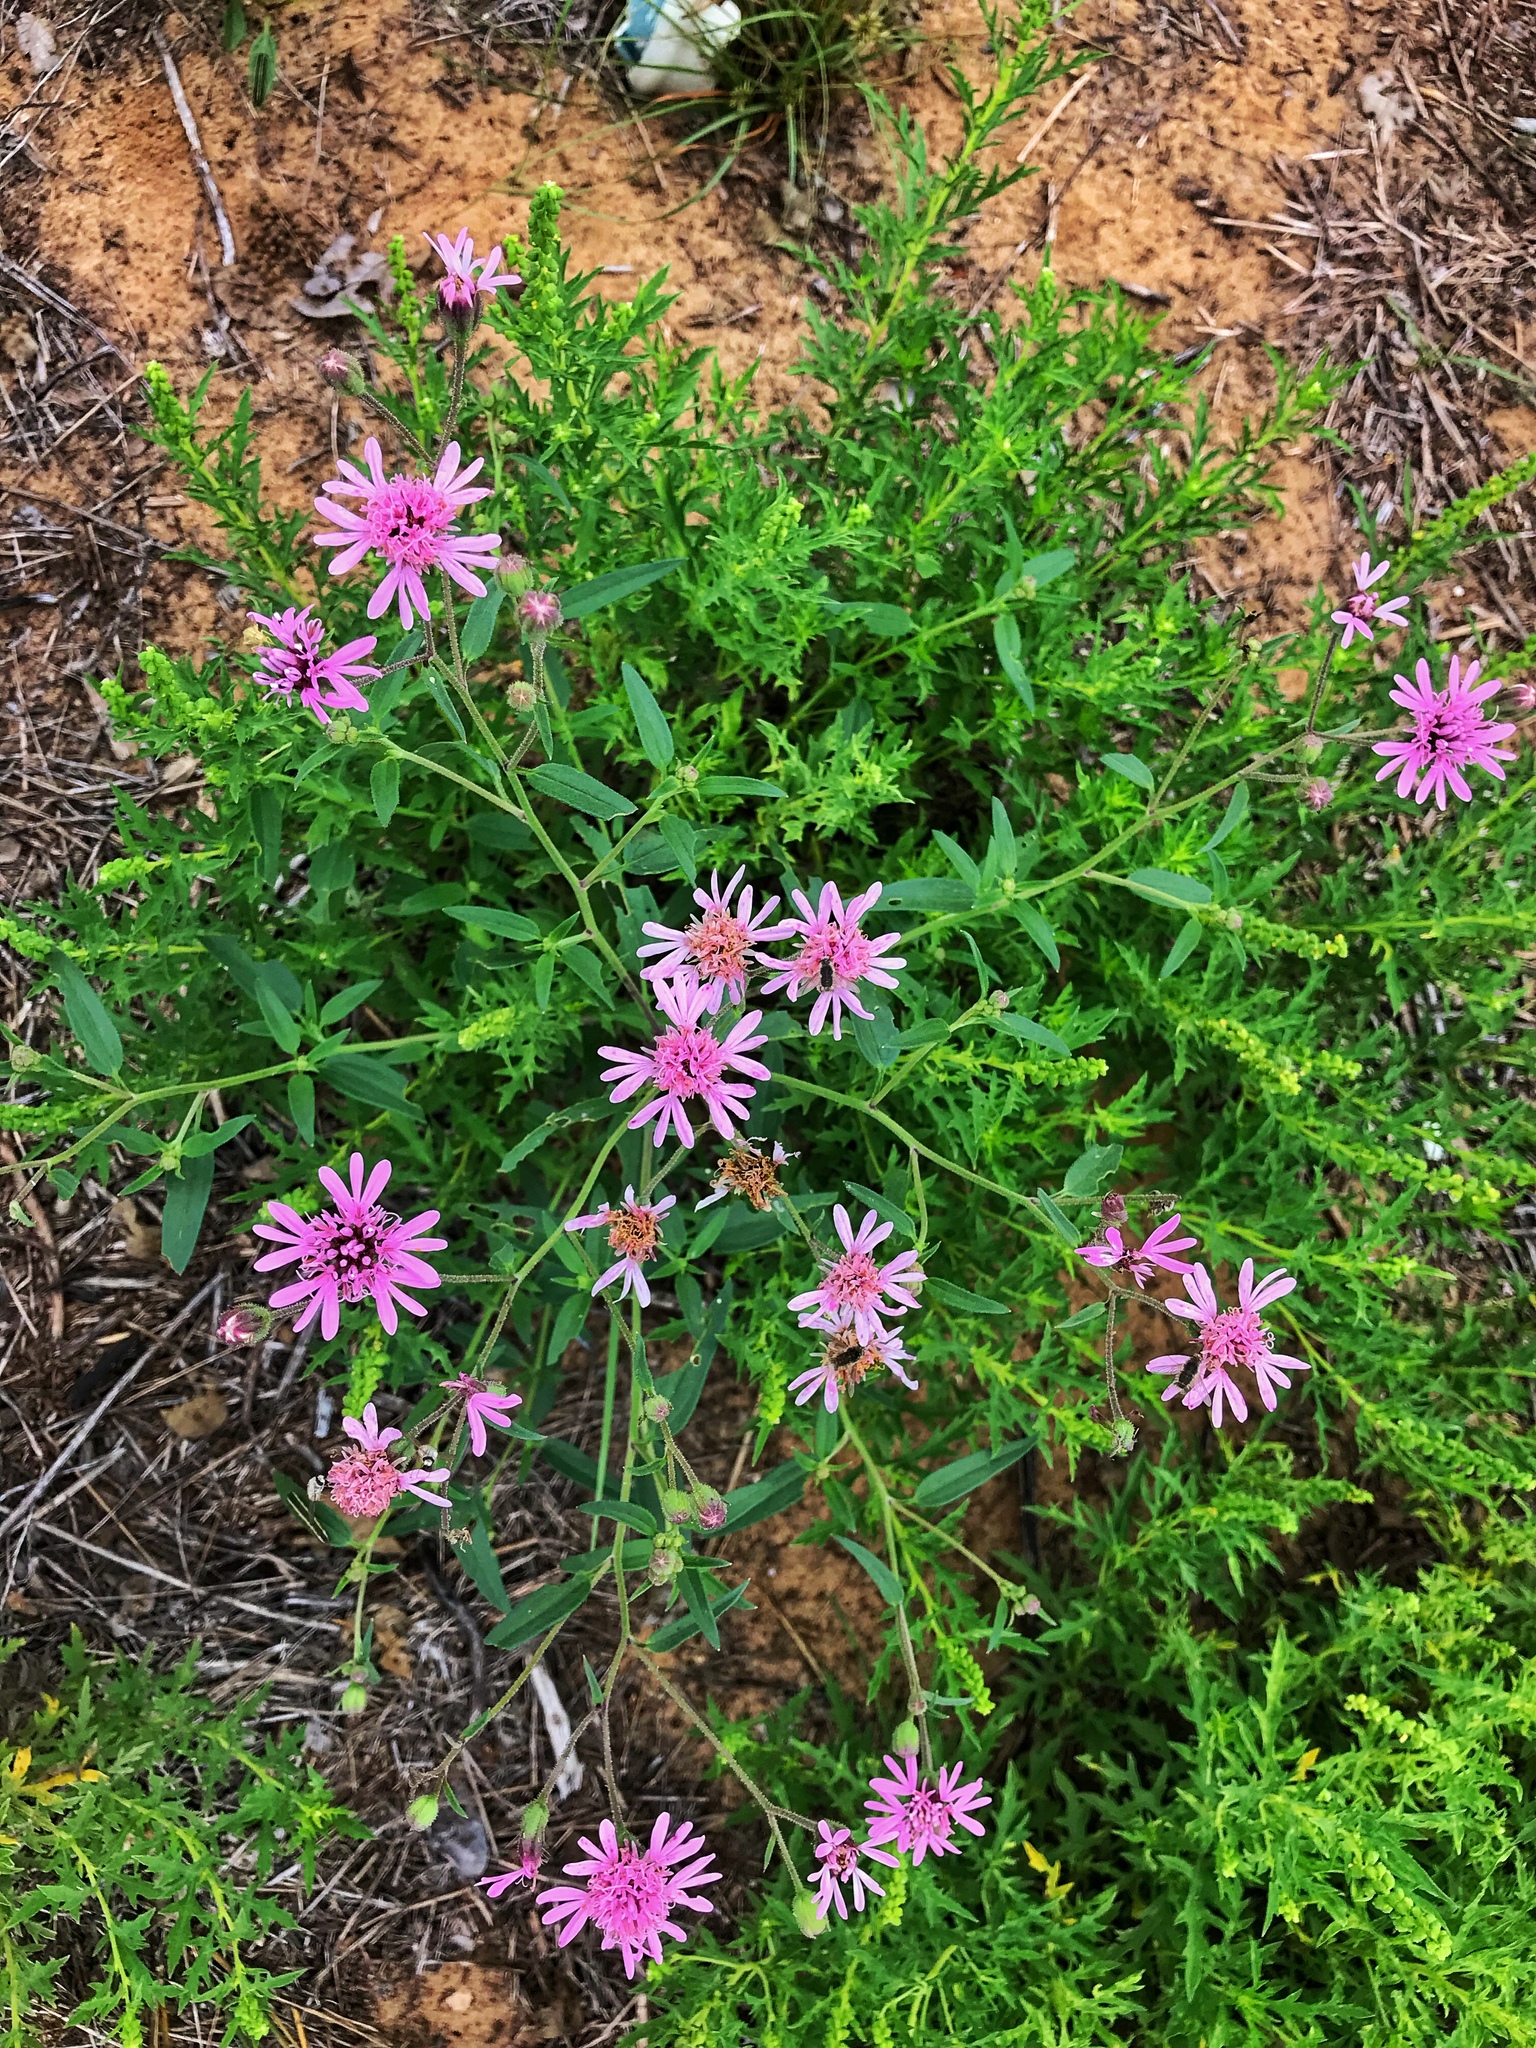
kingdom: Plantae
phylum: Tracheophyta
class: Magnoliopsida
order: Asterales
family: Asteraceae
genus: Palafoxia
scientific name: Palafoxia sphacelata
